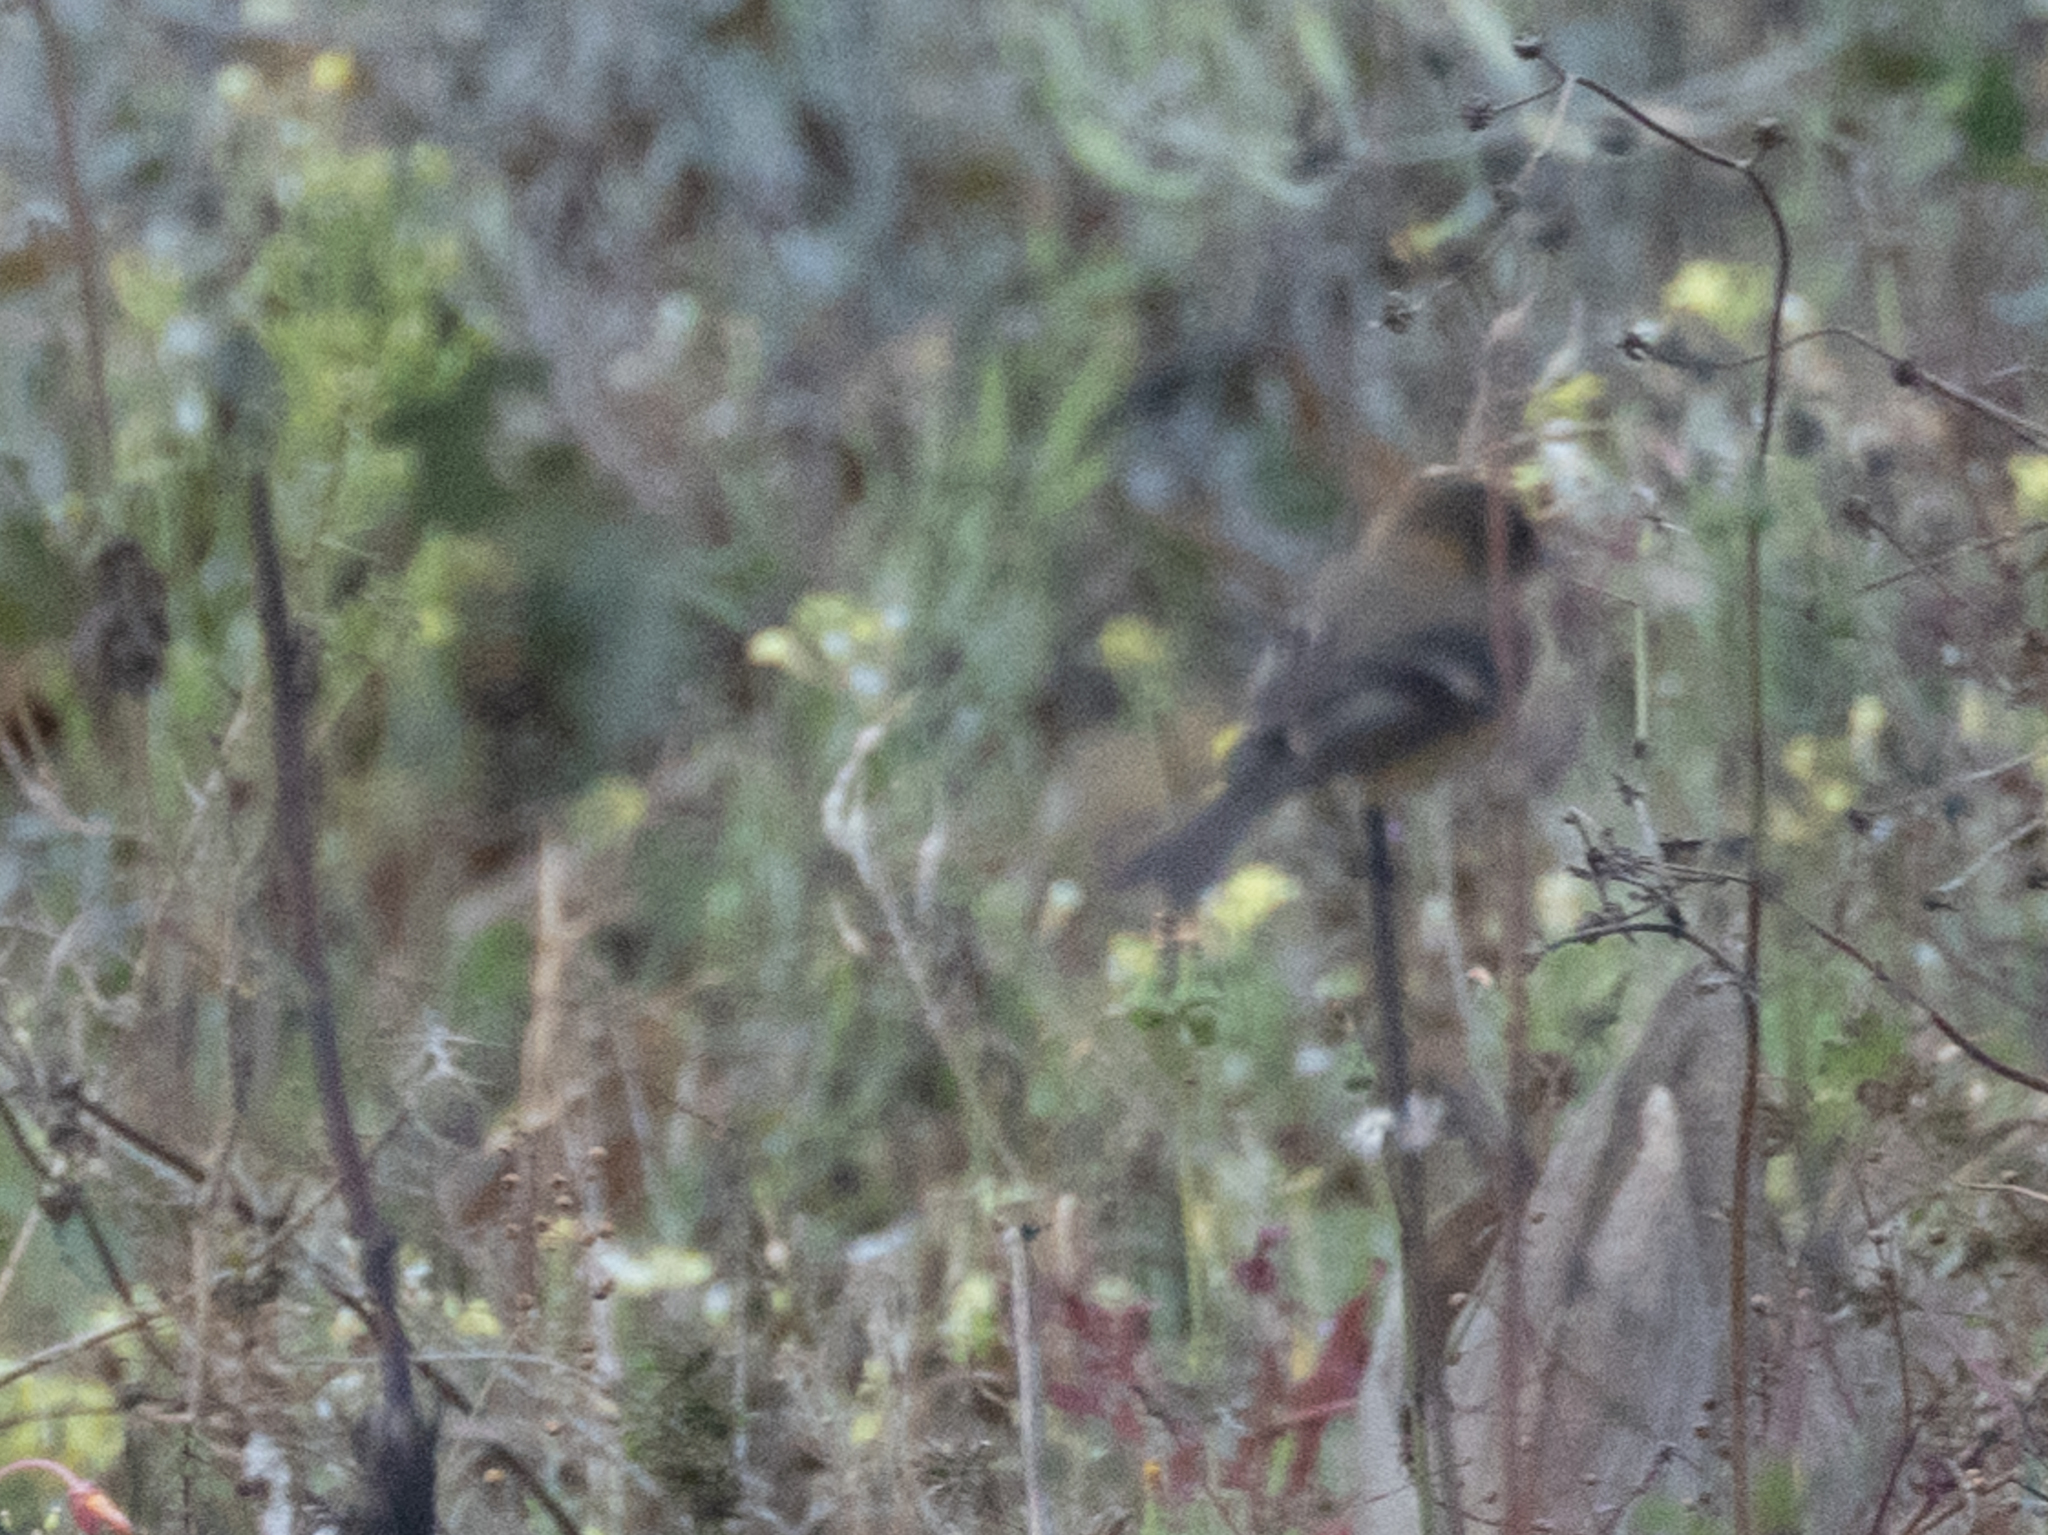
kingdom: Animalia
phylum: Chordata
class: Aves
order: Passeriformes
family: Tyrannidae
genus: Empidonax
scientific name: Empidonax fulvifrons
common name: Buff-breasted flycatcher
